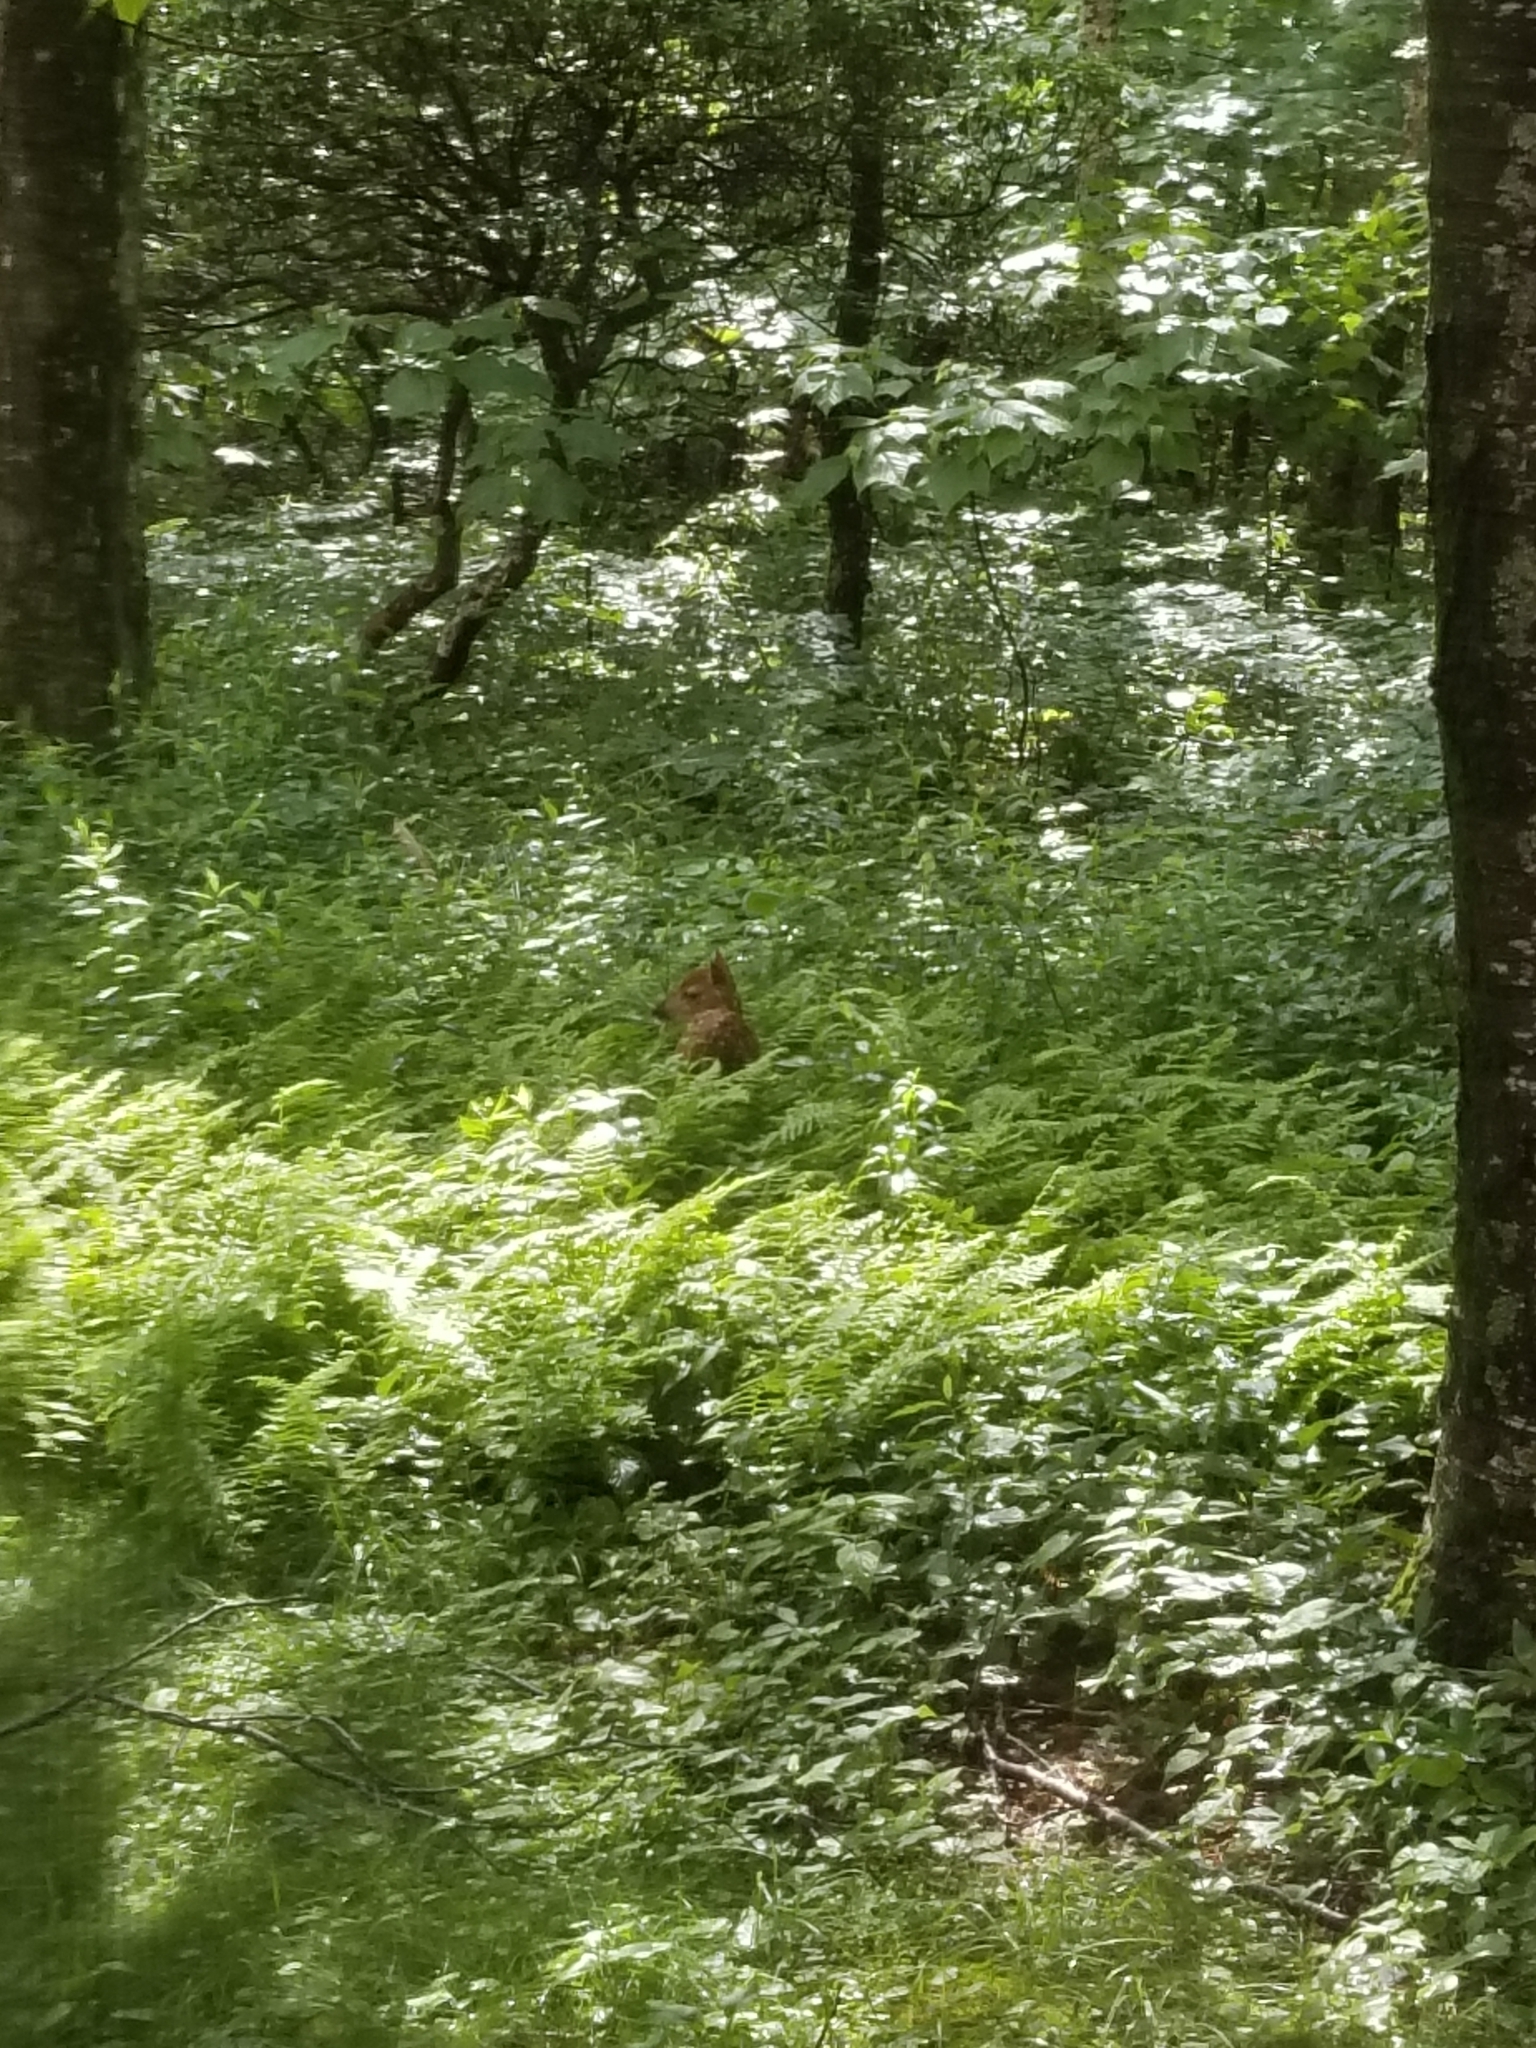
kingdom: Animalia
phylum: Chordata
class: Mammalia
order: Artiodactyla
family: Cervidae
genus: Odocoileus
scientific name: Odocoileus virginianus
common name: White-tailed deer
